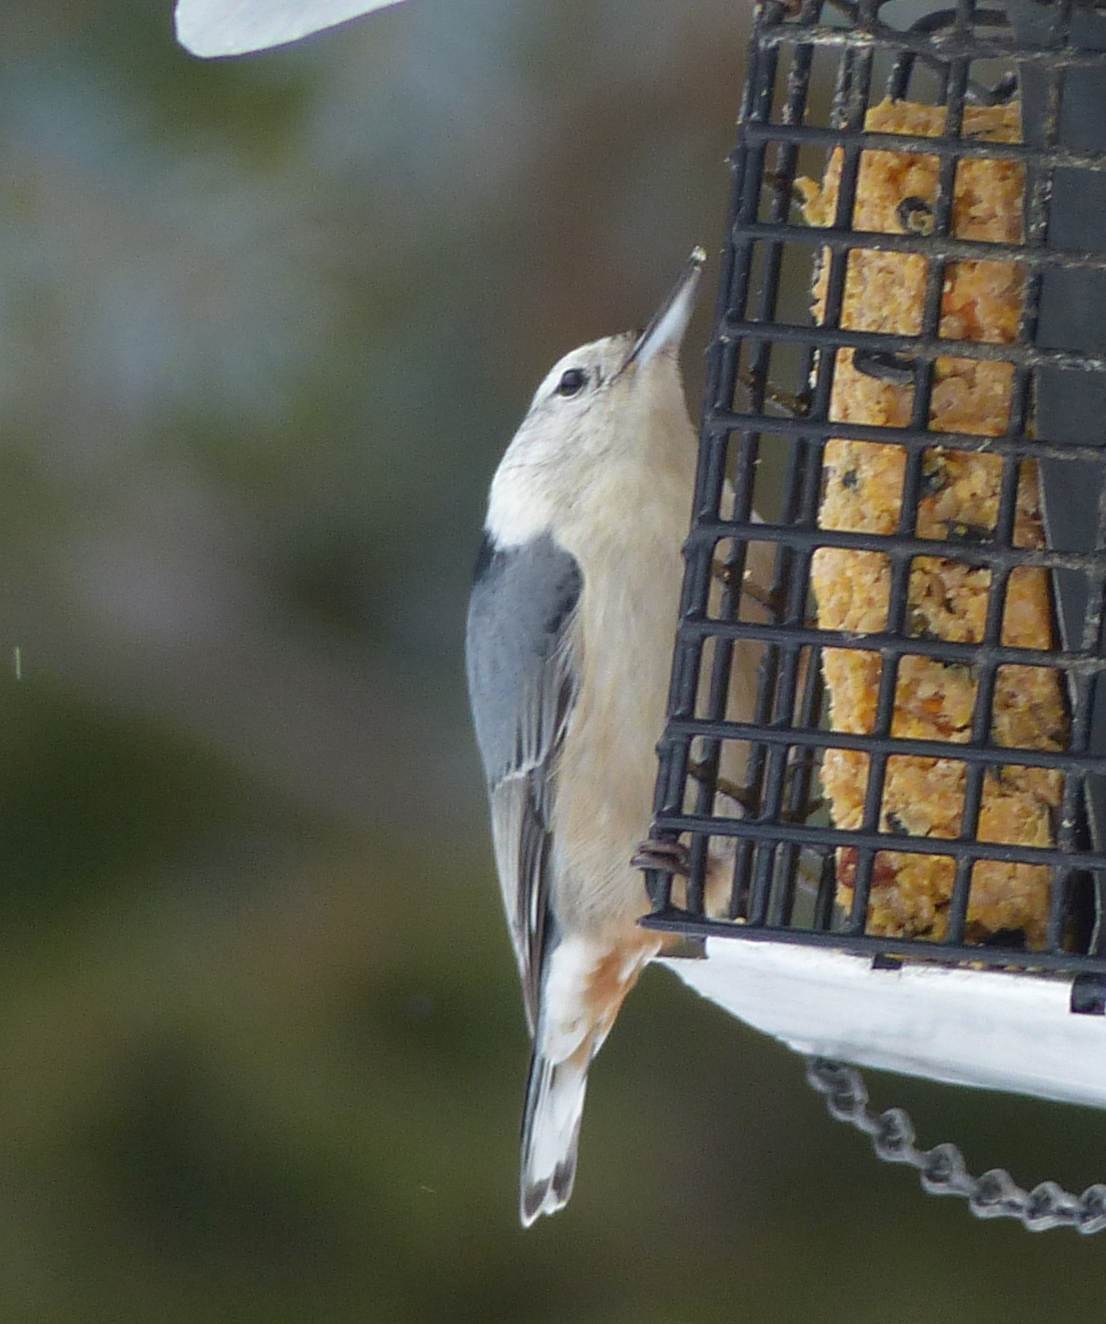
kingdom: Animalia
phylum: Chordata
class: Aves
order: Passeriformes
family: Sittidae
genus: Sitta
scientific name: Sitta carolinensis
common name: White-breasted nuthatch
